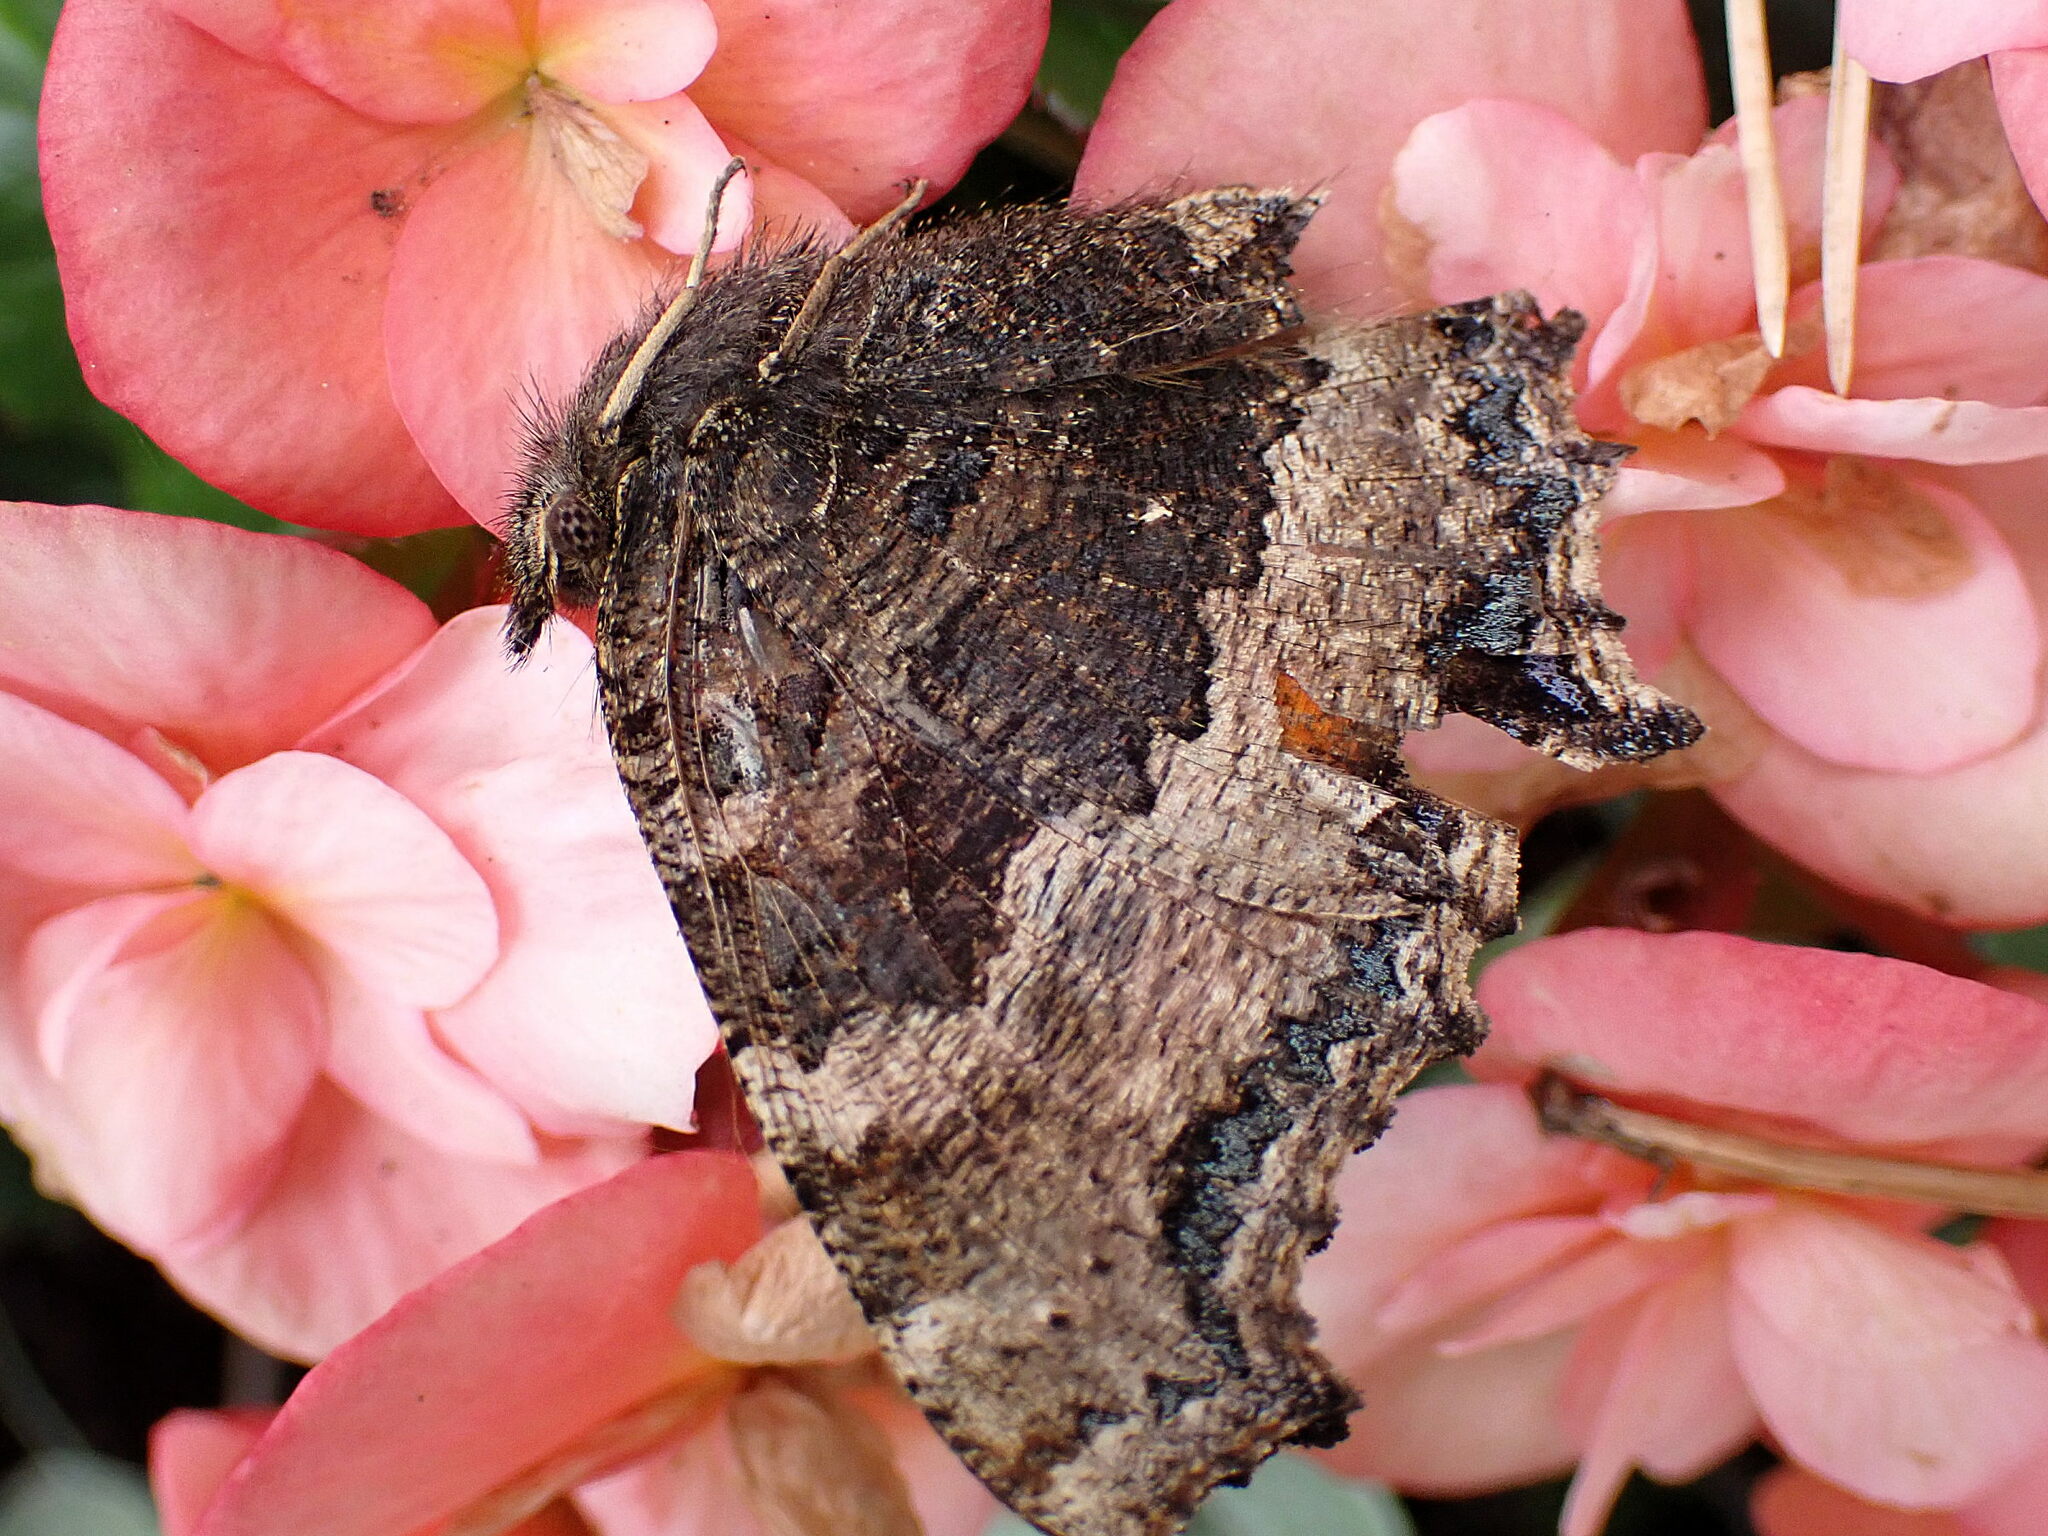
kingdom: Animalia
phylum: Arthropoda
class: Insecta
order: Lepidoptera
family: Nymphalidae
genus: Nymphalis
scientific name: Nymphalis xanthomelas
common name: Scarce tortoiseshell
